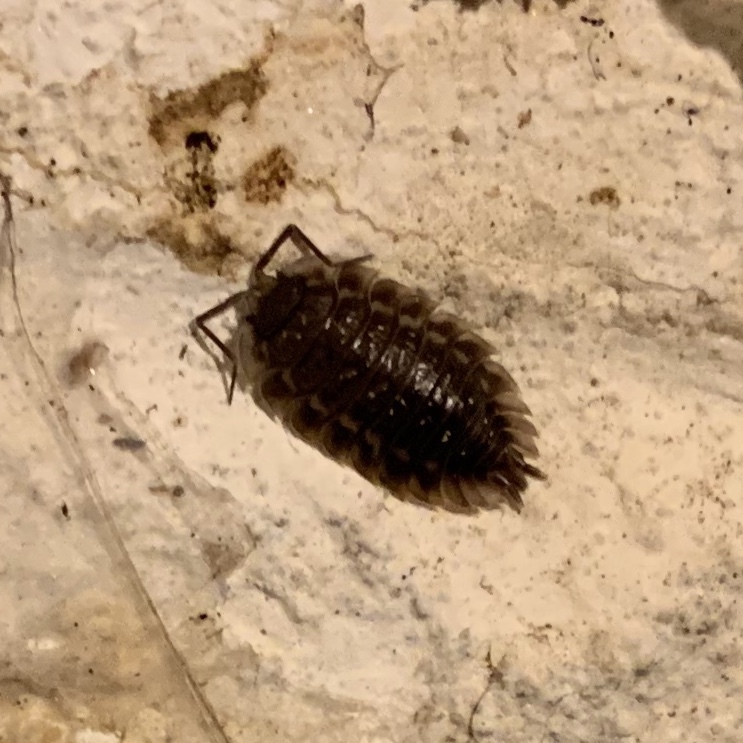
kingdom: Animalia
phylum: Arthropoda
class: Malacostraca
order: Isopoda
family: Oniscidae
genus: Oniscus
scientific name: Oniscus asellus
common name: Common shiny woodlouse
